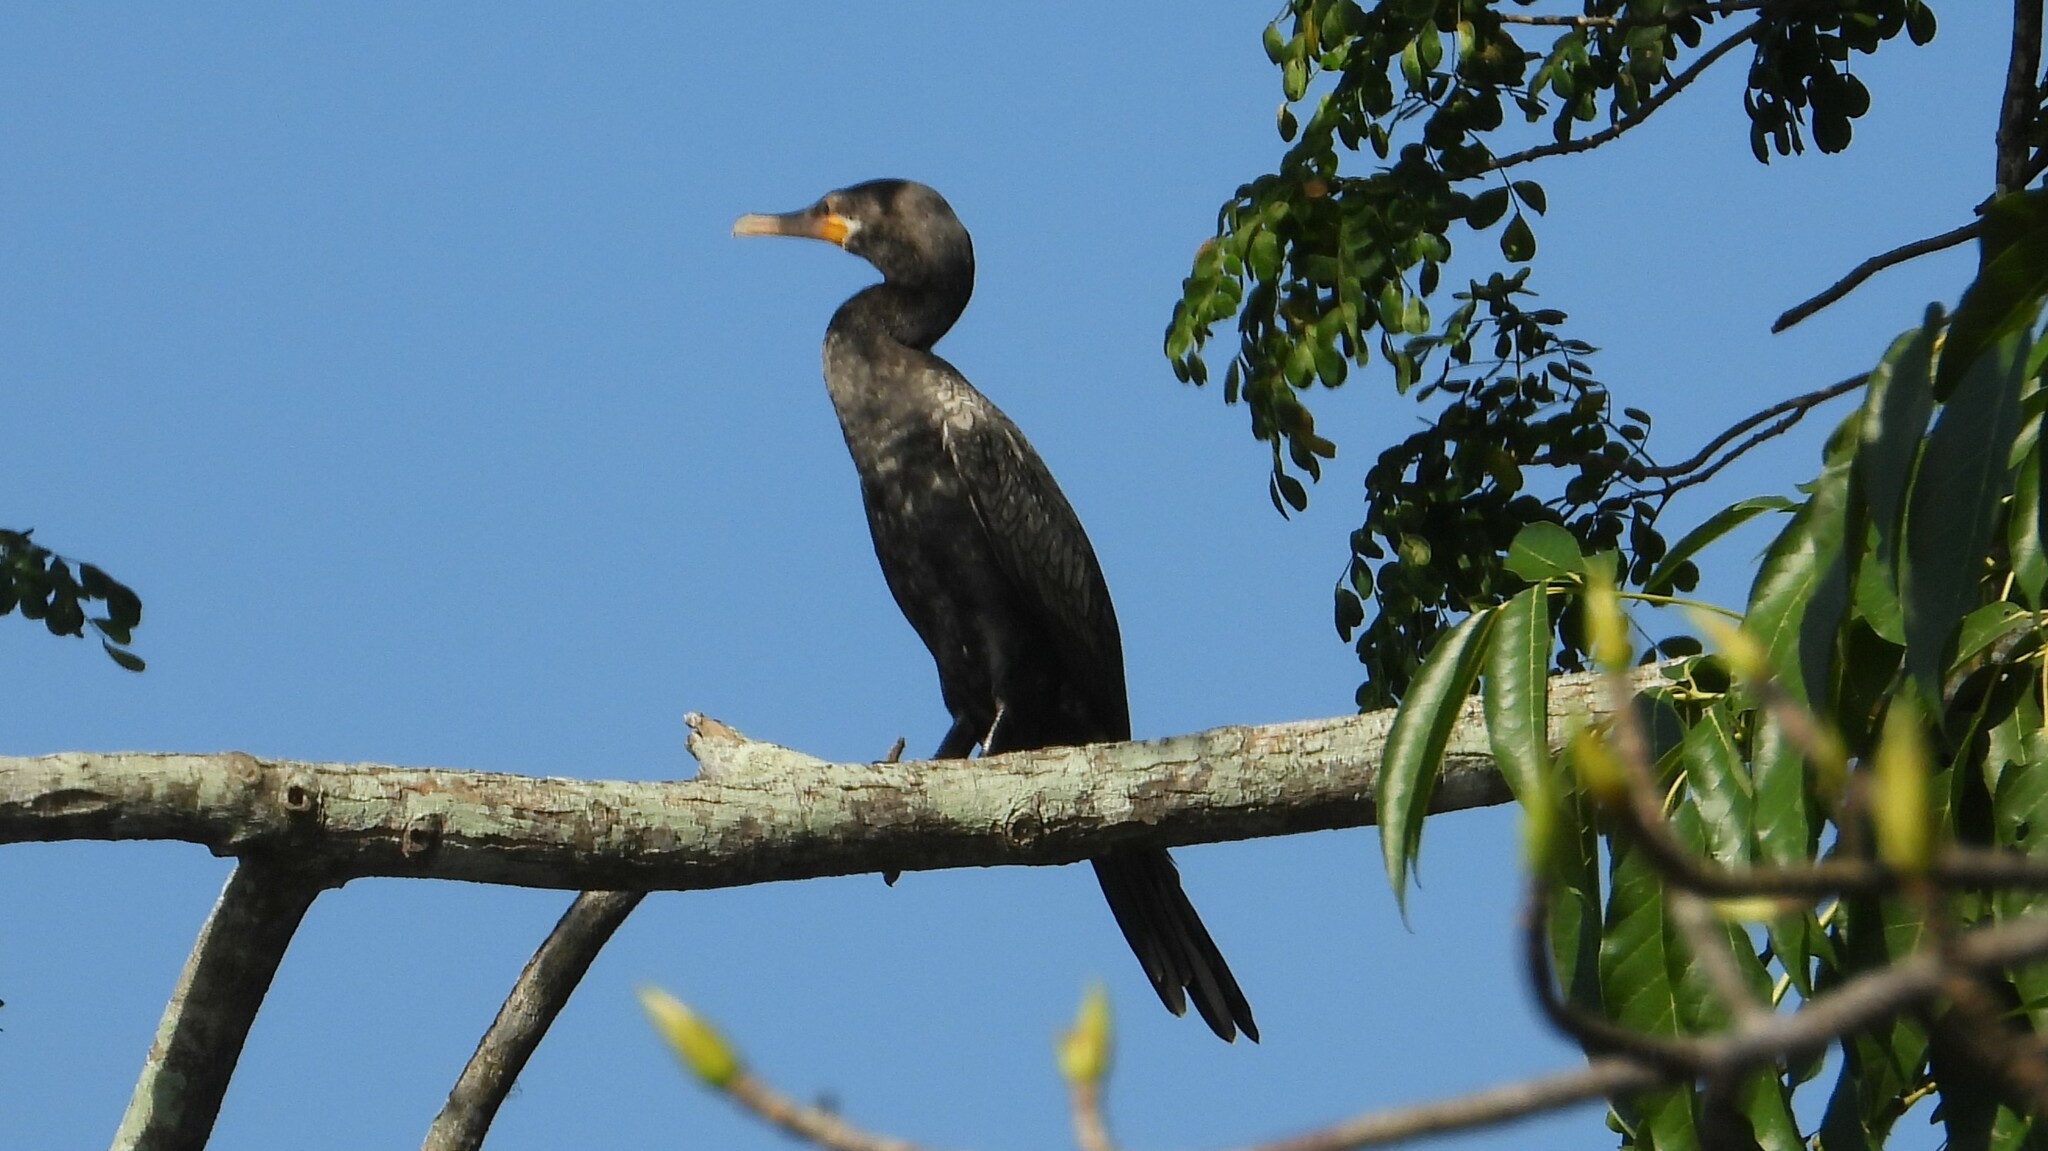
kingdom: Animalia
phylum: Chordata
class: Aves
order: Suliformes
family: Phalacrocoracidae
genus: Phalacrocorax
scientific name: Phalacrocorax brasilianus
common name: Neotropic cormorant
